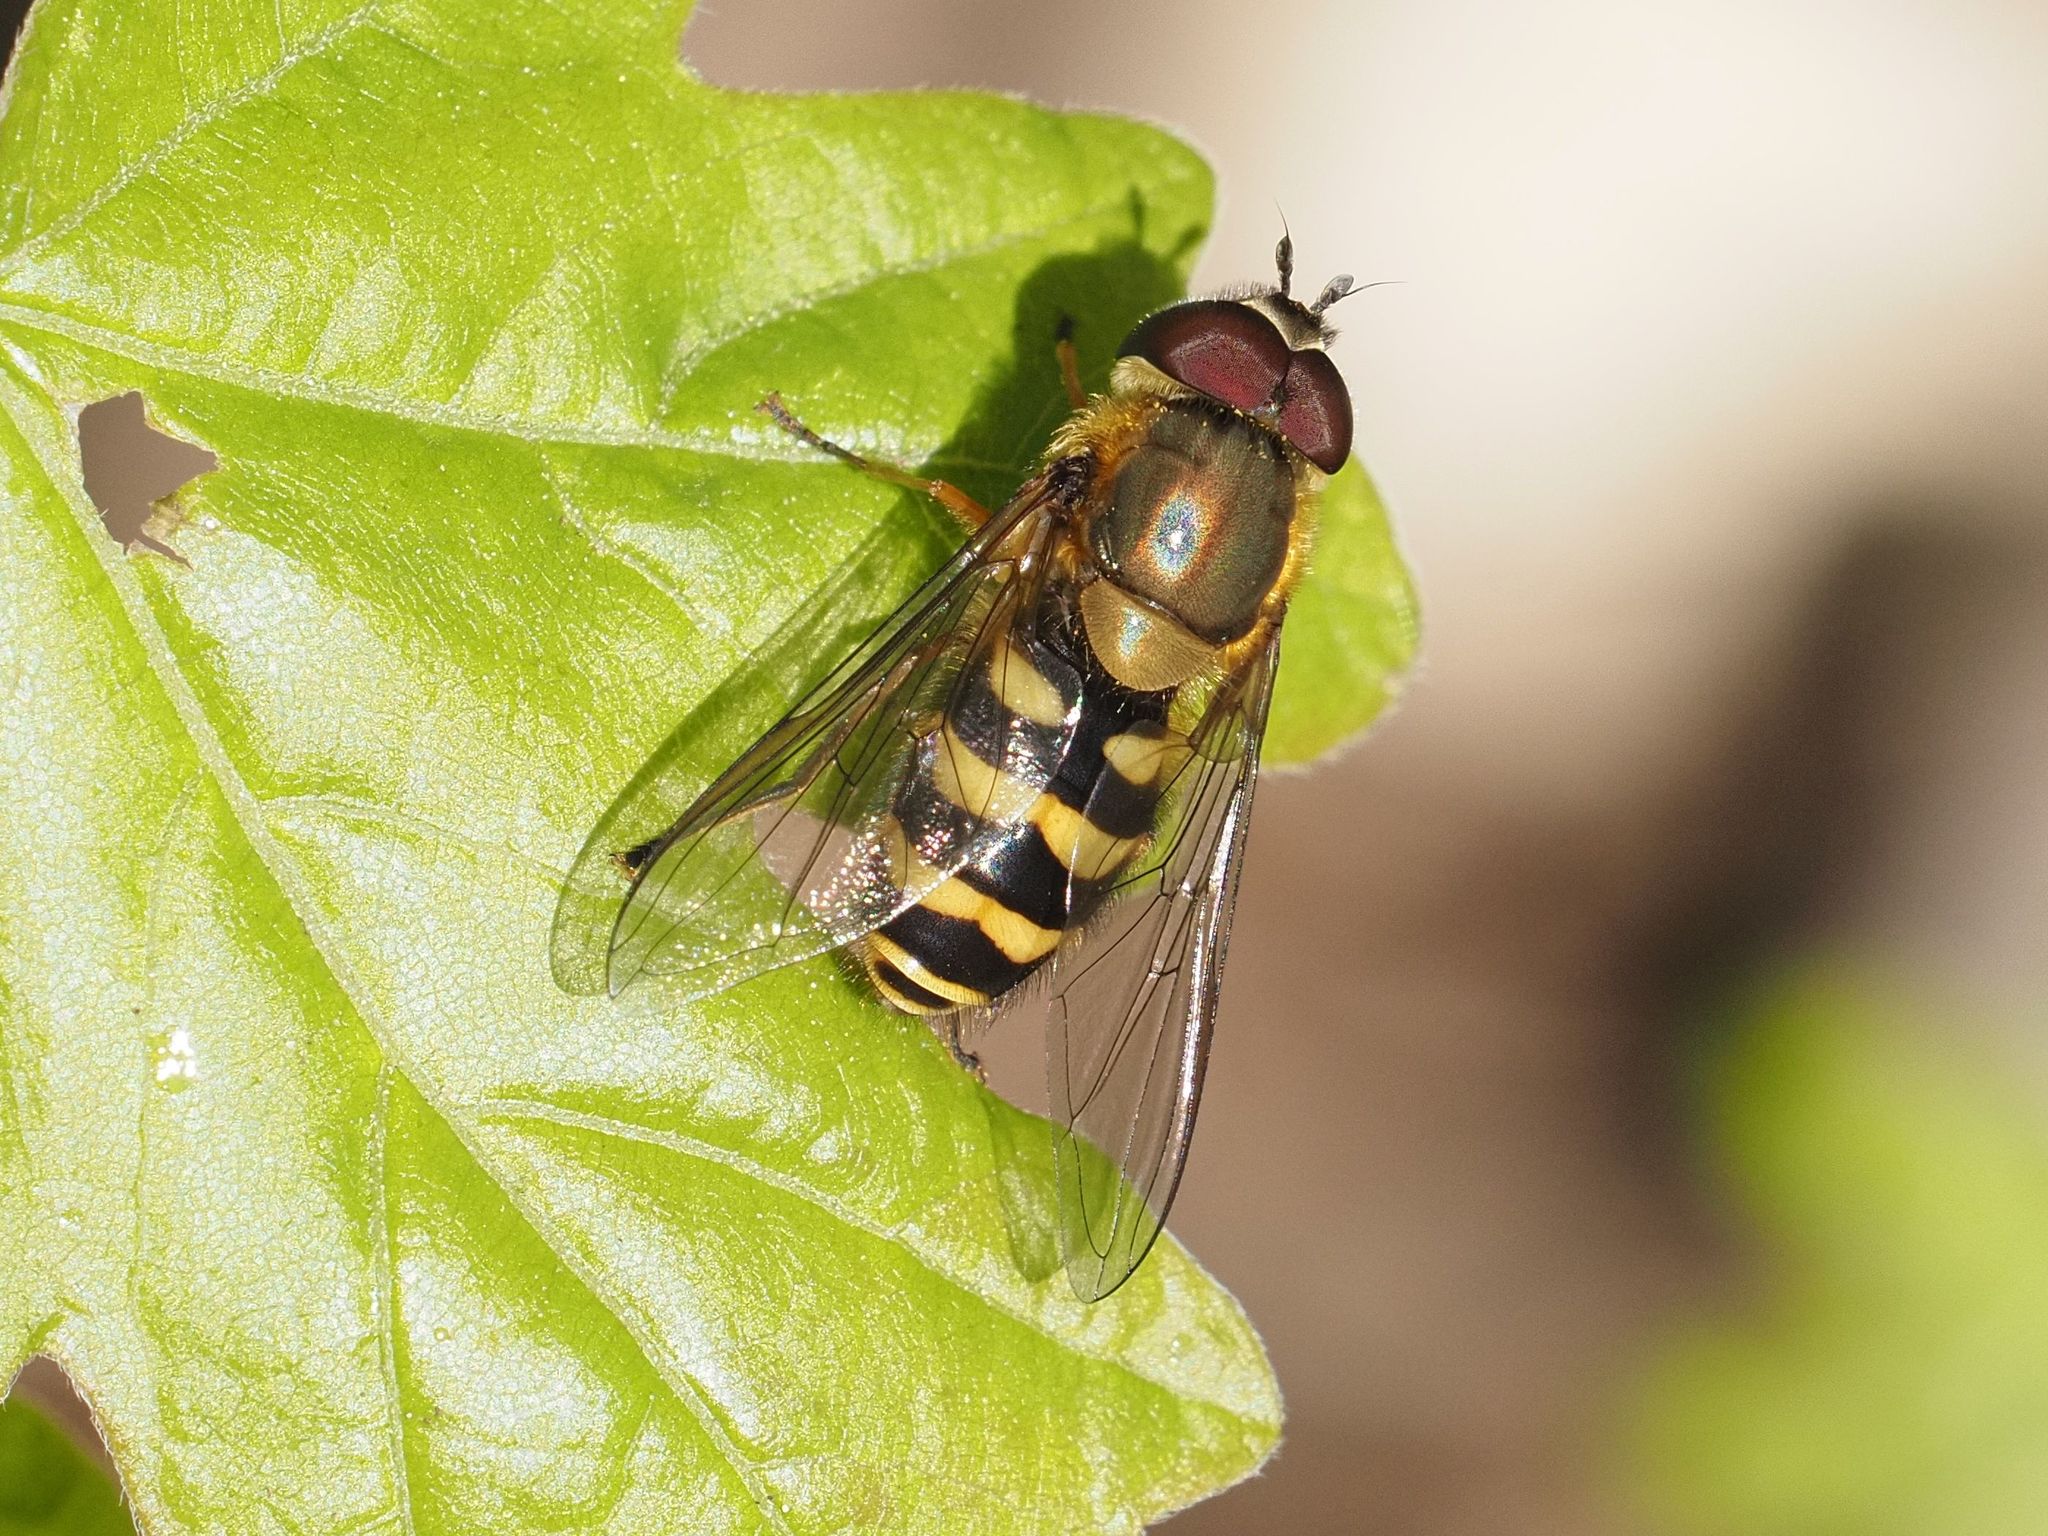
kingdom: Animalia
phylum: Arthropoda
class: Insecta
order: Diptera
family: Syrphidae
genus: Syrphus
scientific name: Syrphus torvus
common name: Hairy-eyed flower fly
